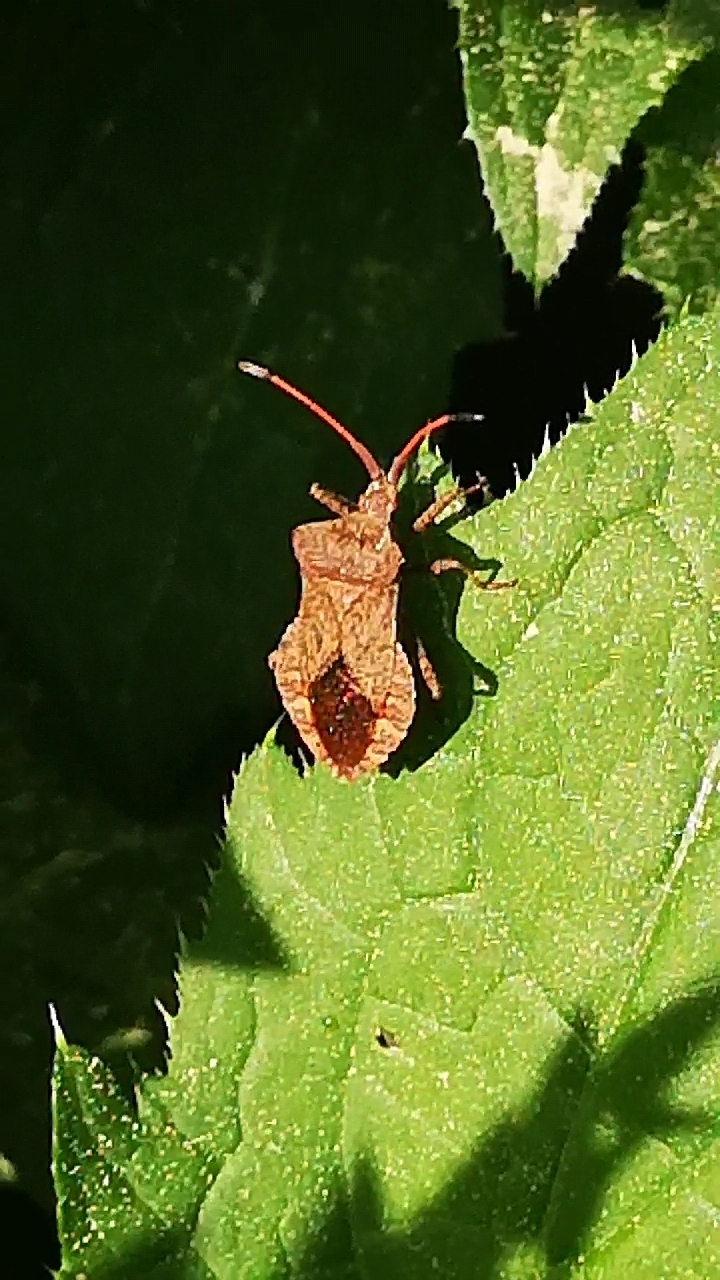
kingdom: Animalia
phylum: Arthropoda
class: Insecta
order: Hemiptera
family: Coreidae
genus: Coreus
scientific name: Coreus marginatus
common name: Dock bug
